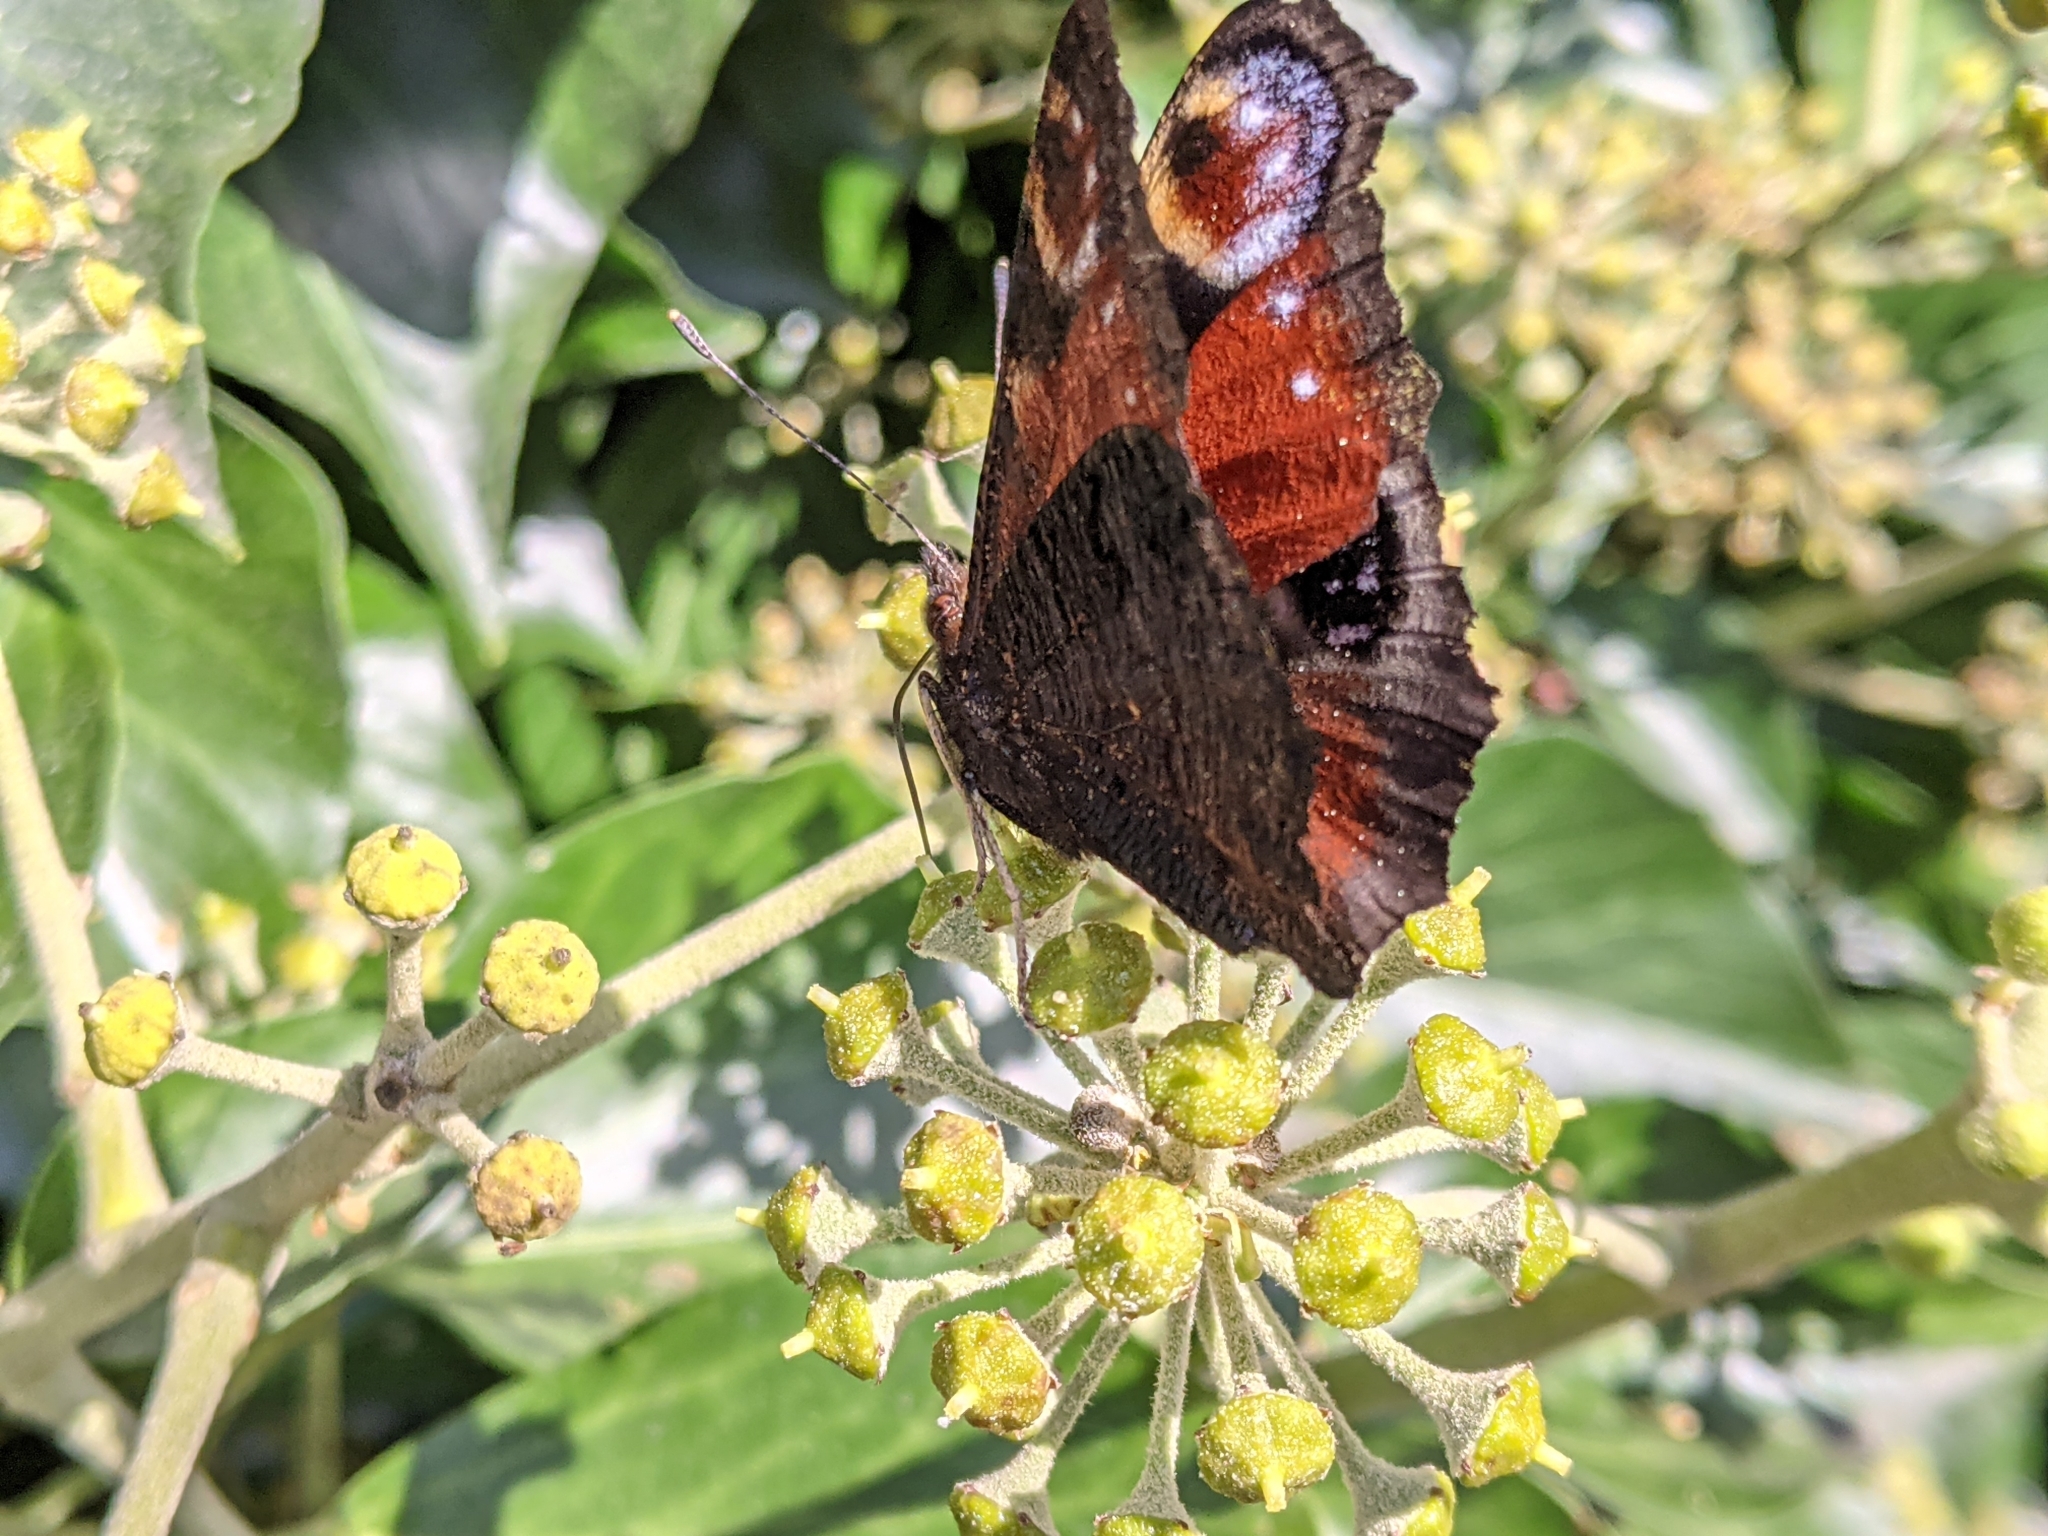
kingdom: Animalia
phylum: Arthropoda
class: Insecta
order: Lepidoptera
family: Nymphalidae
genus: Aglais
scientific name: Aglais io
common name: Peacock
